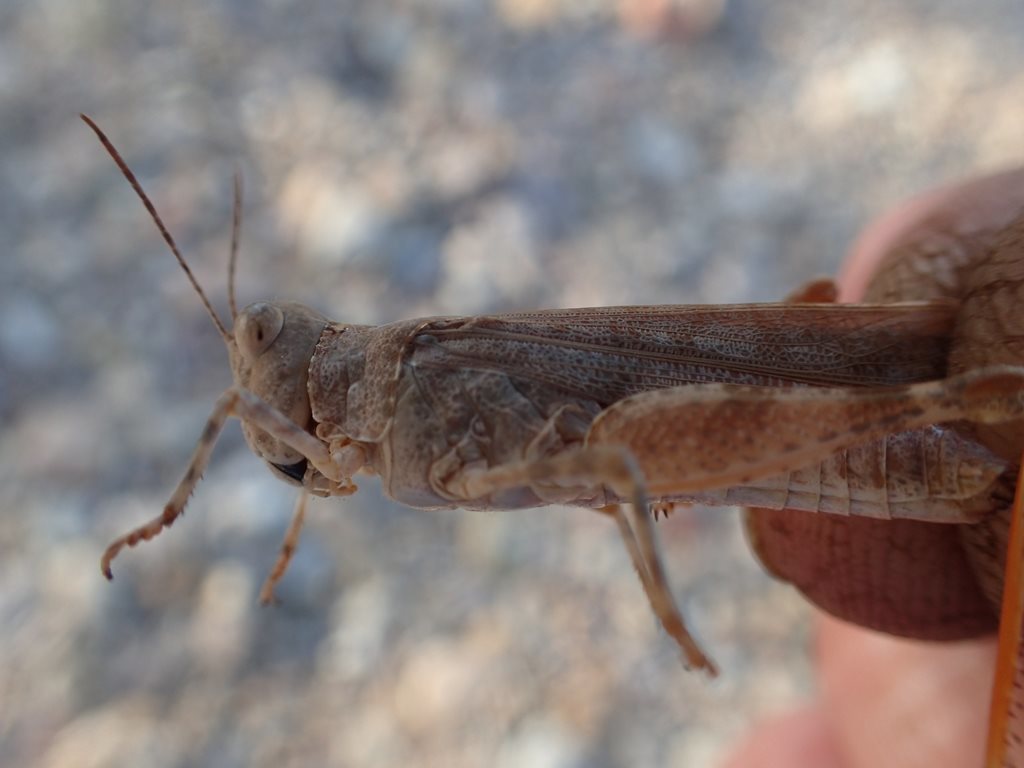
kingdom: Animalia
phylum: Arthropoda
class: Insecta
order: Orthoptera
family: Acrididae
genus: Sphingonotus
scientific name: Sphingonotus erythropterus
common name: Australian sphingonotus
